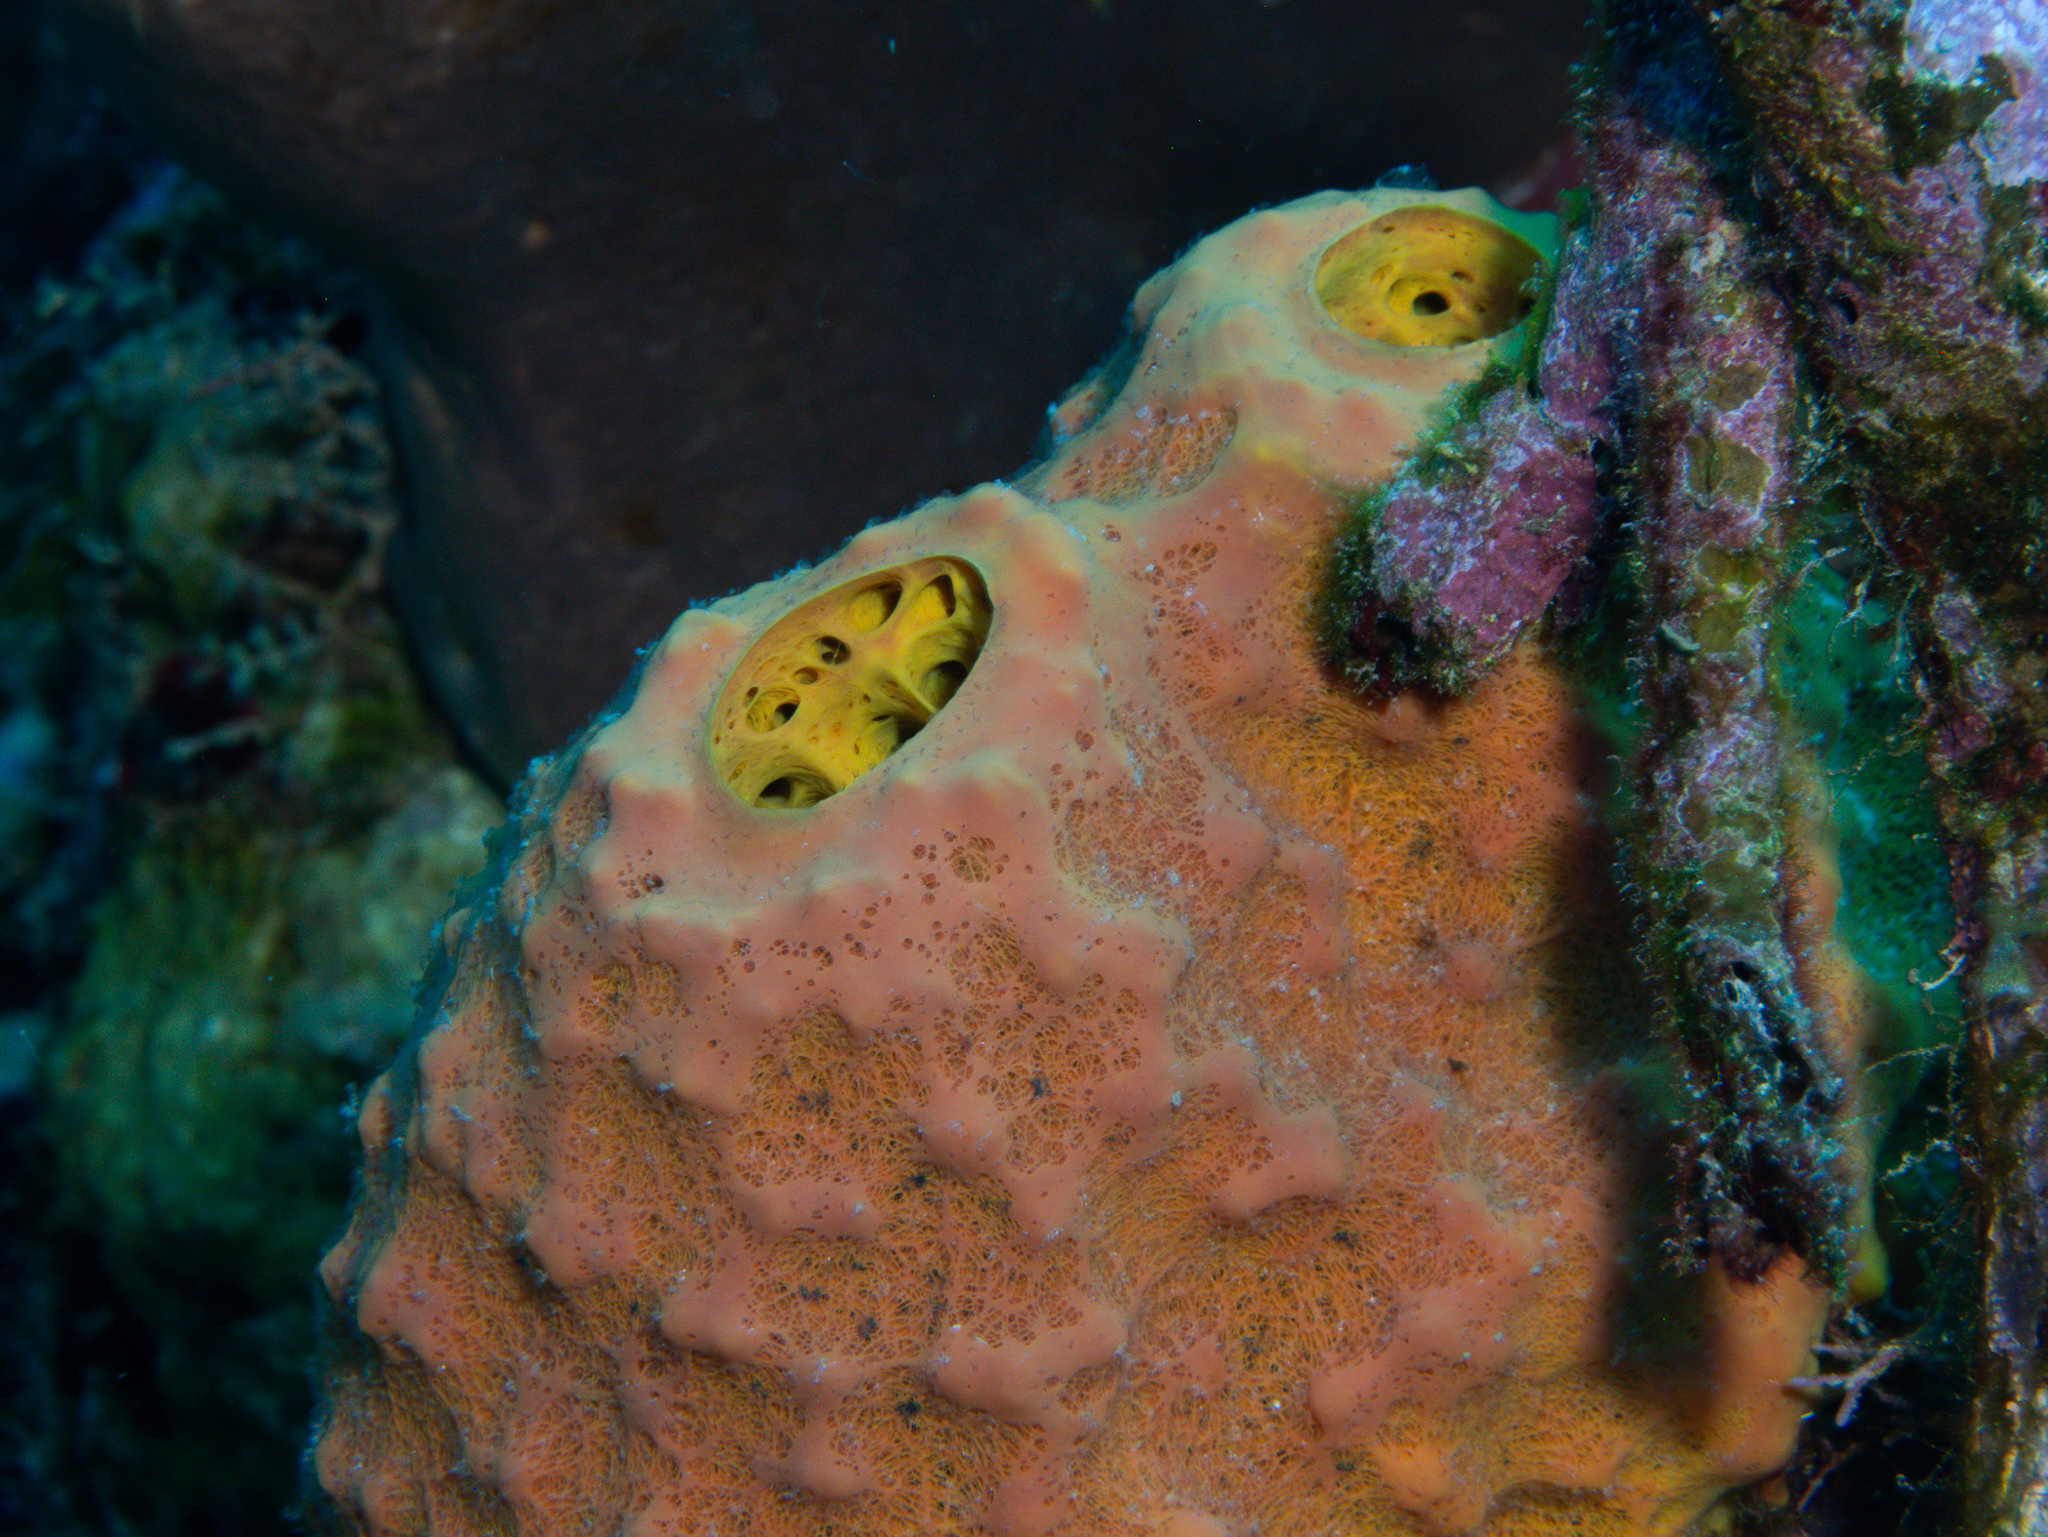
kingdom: Animalia
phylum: Porifera
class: Demospongiae
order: Verongiida
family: Aplysinidae
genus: Aiolochroia
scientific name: Aiolochroia crassa
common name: Branching tube sponge
